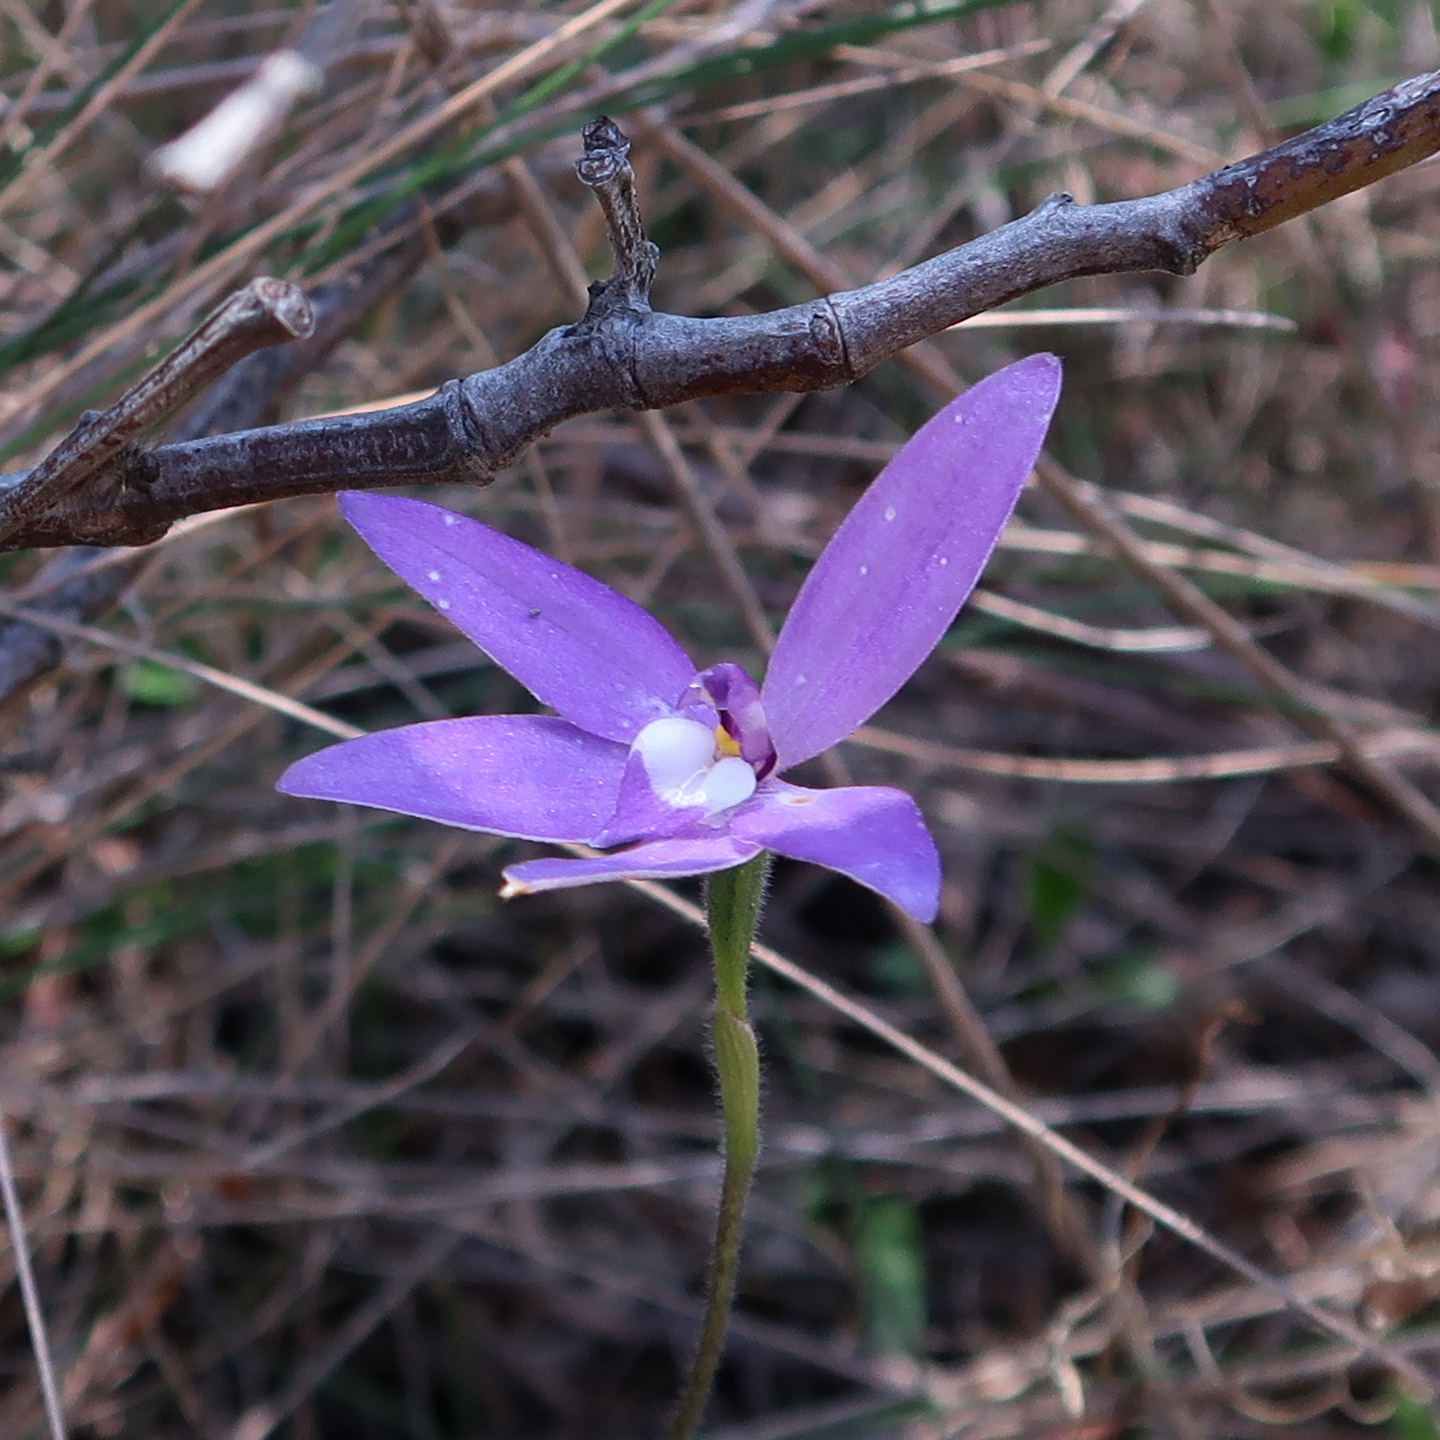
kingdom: Plantae
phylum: Tracheophyta
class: Liliopsida
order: Asparagales
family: Orchidaceae
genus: Caladenia
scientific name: Caladenia major
